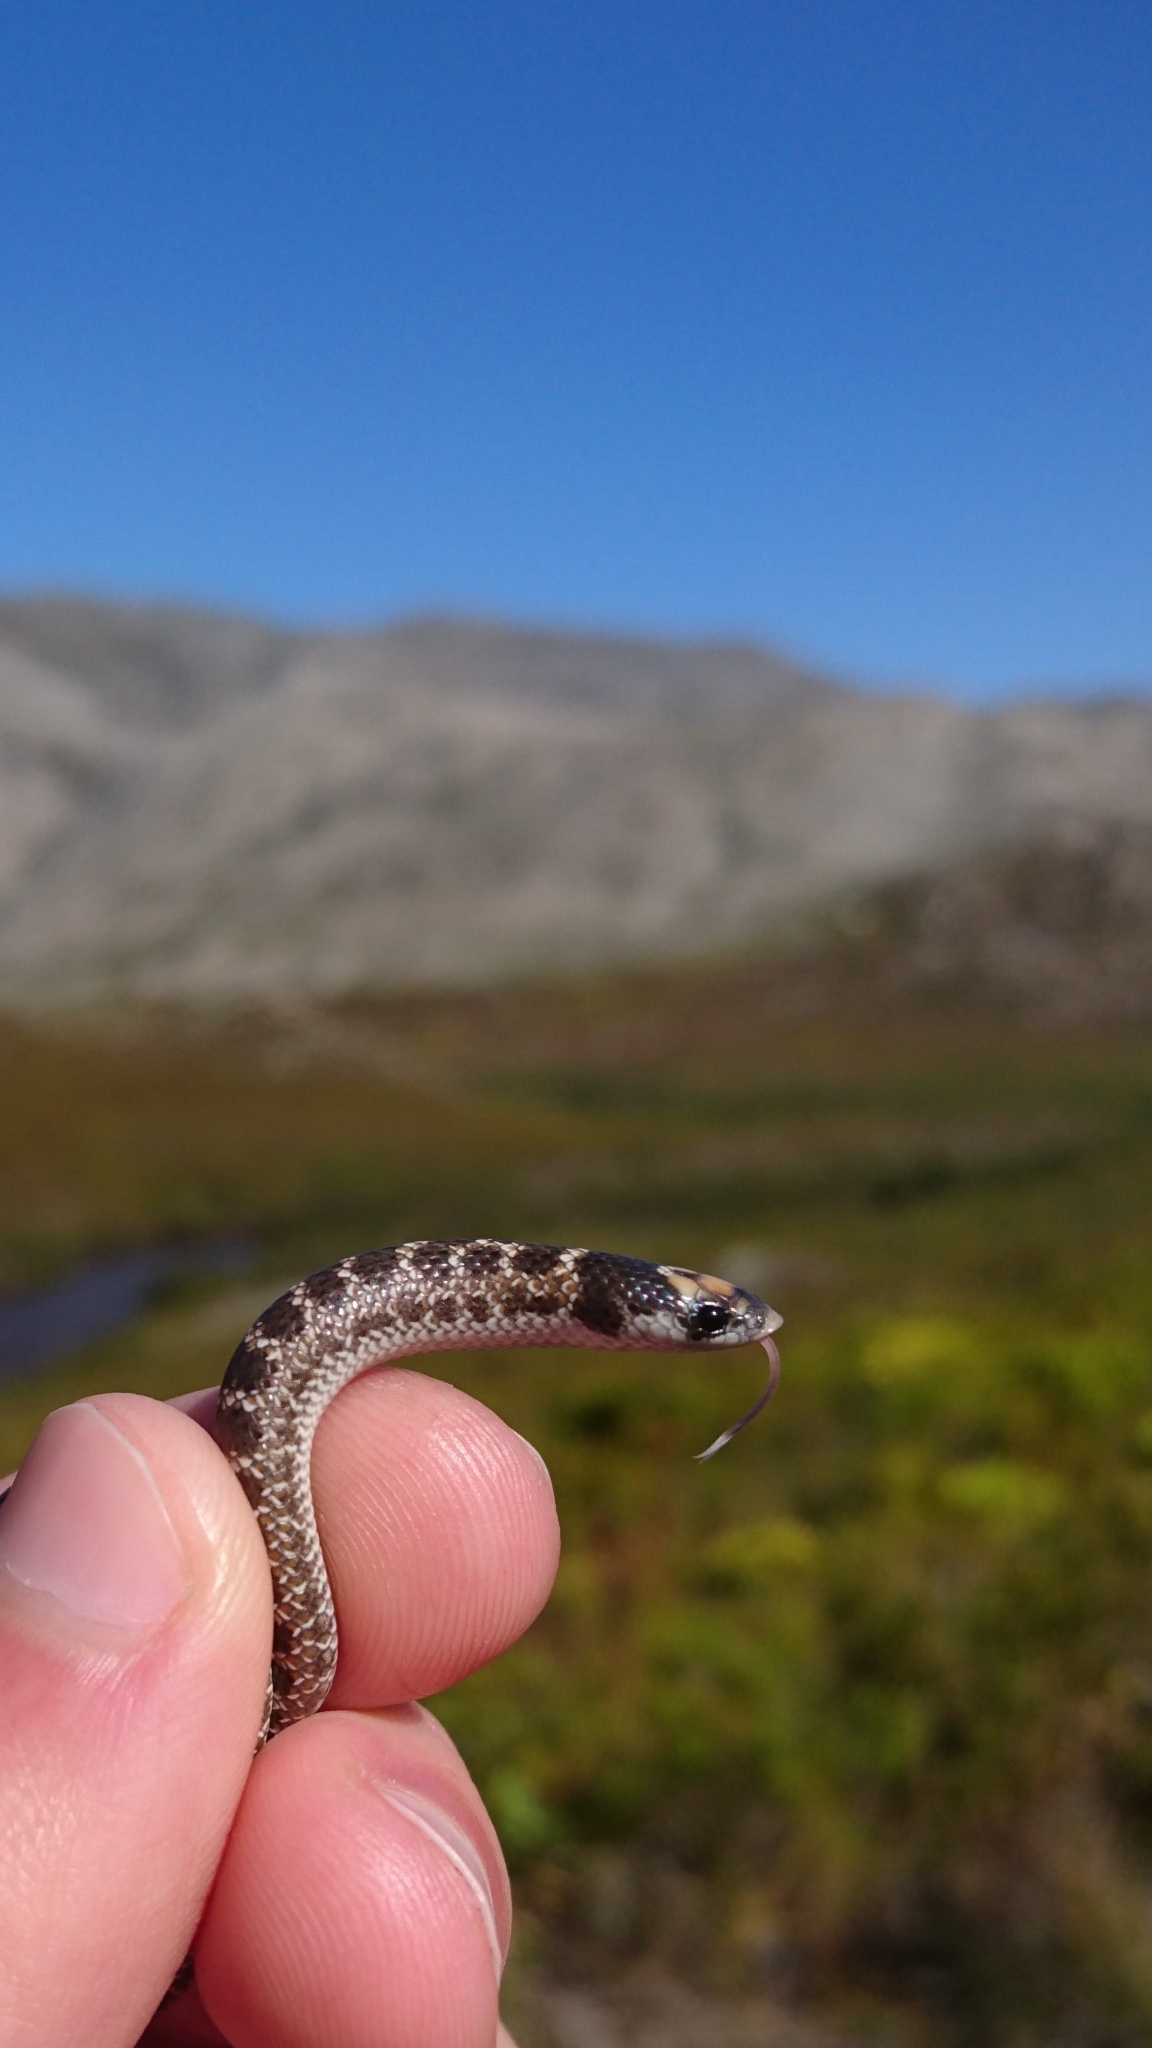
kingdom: Animalia
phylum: Chordata
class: Squamata
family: Prosymnidae
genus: Prosymna
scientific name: Prosymna sundevalli
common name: Sundevall's shovel-snout
